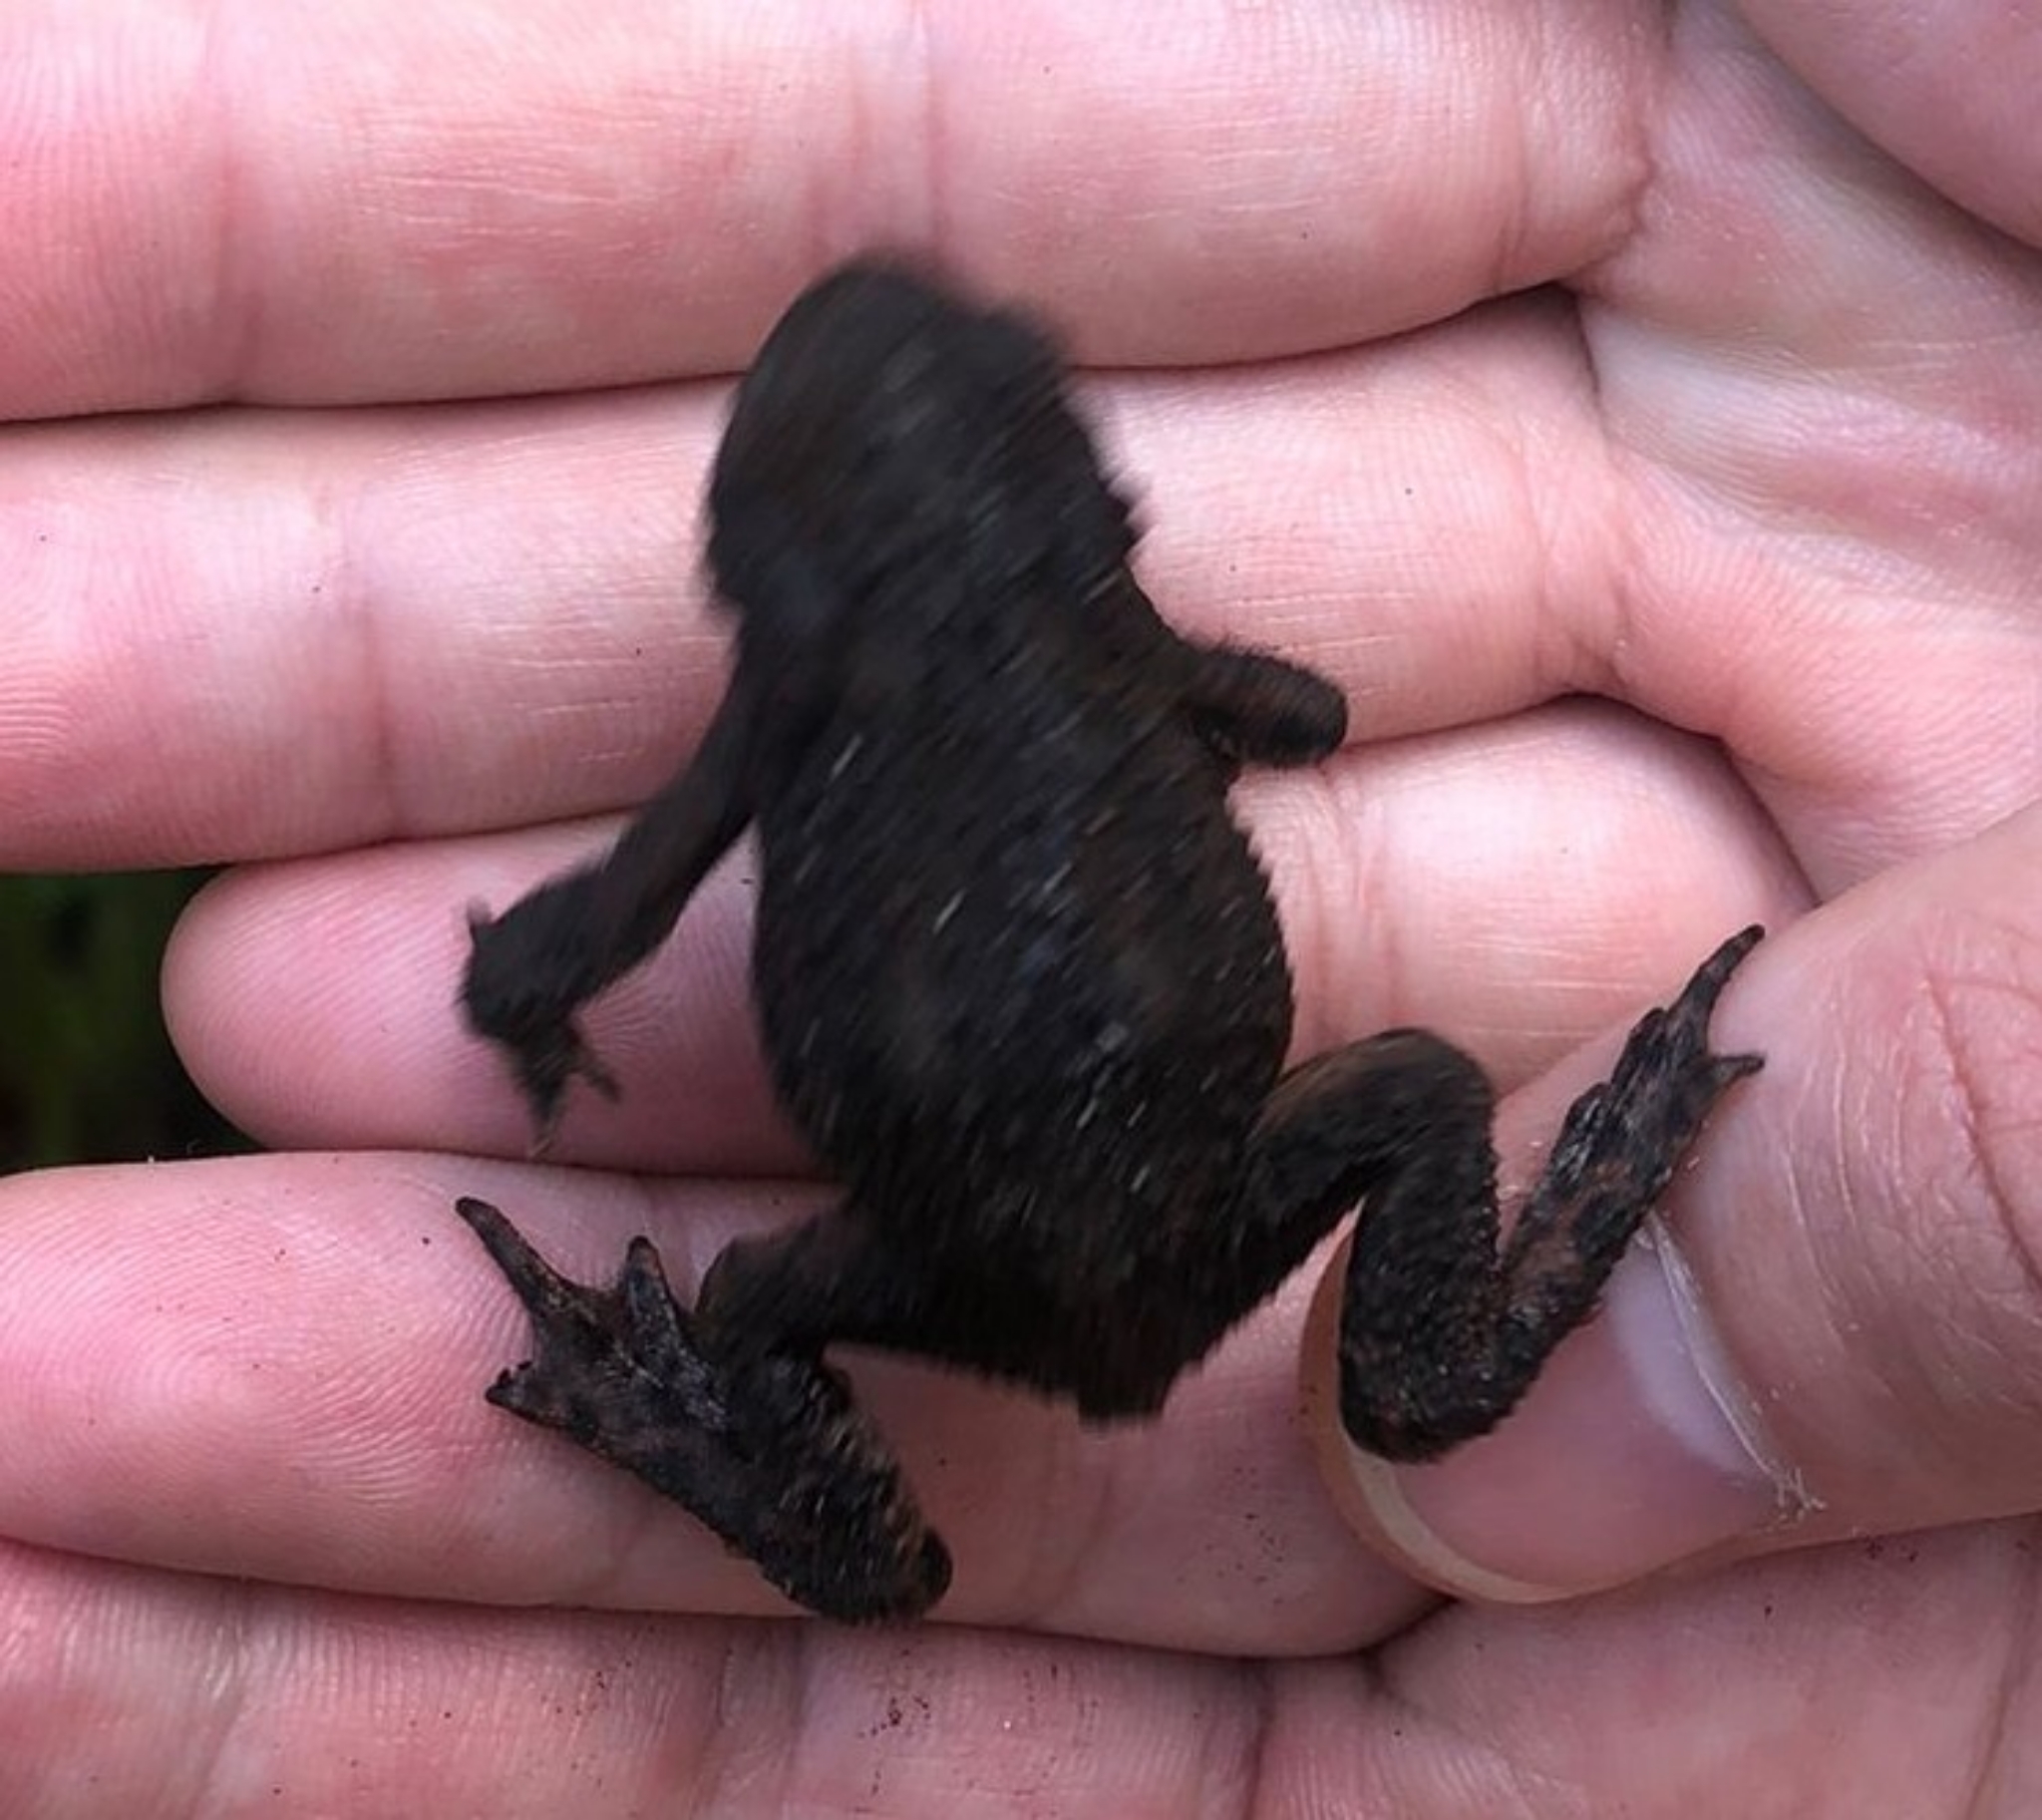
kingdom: Animalia
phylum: Chordata
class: Amphibia
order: Anura
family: Bufonidae
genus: Bufo
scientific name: Bufo bufo
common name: Common toad
